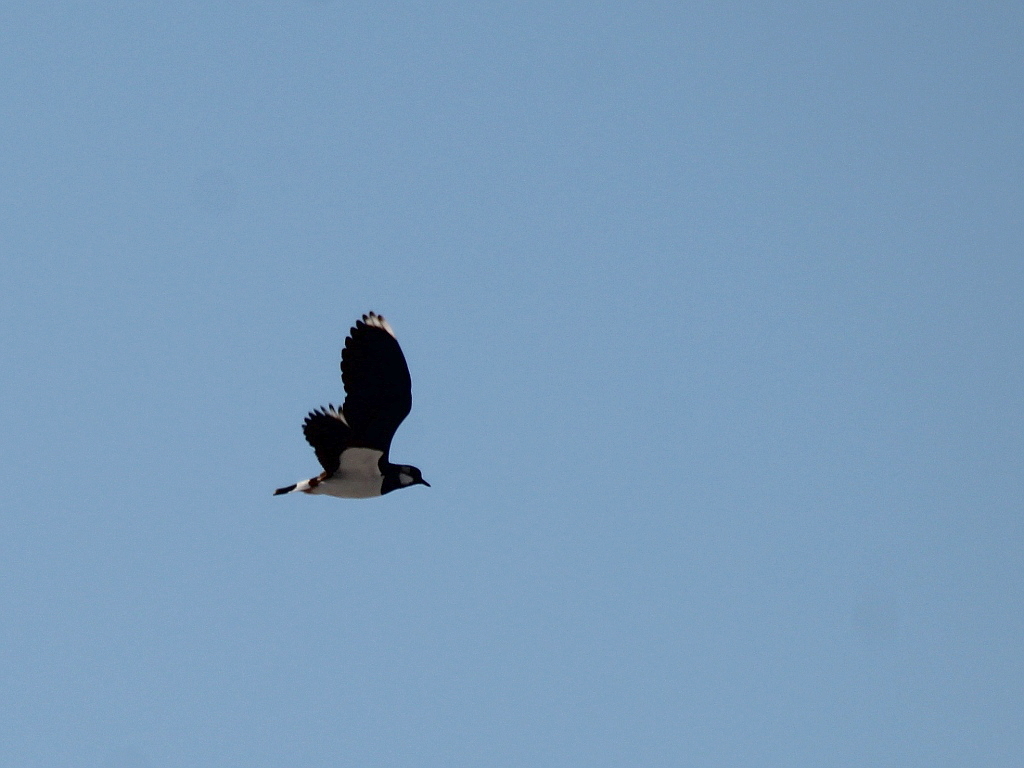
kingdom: Animalia
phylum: Chordata
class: Aves
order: Charadriiformes
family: Charadriidae
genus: Vanellus
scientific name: Vanellus vanellus
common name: Northern lapwing
